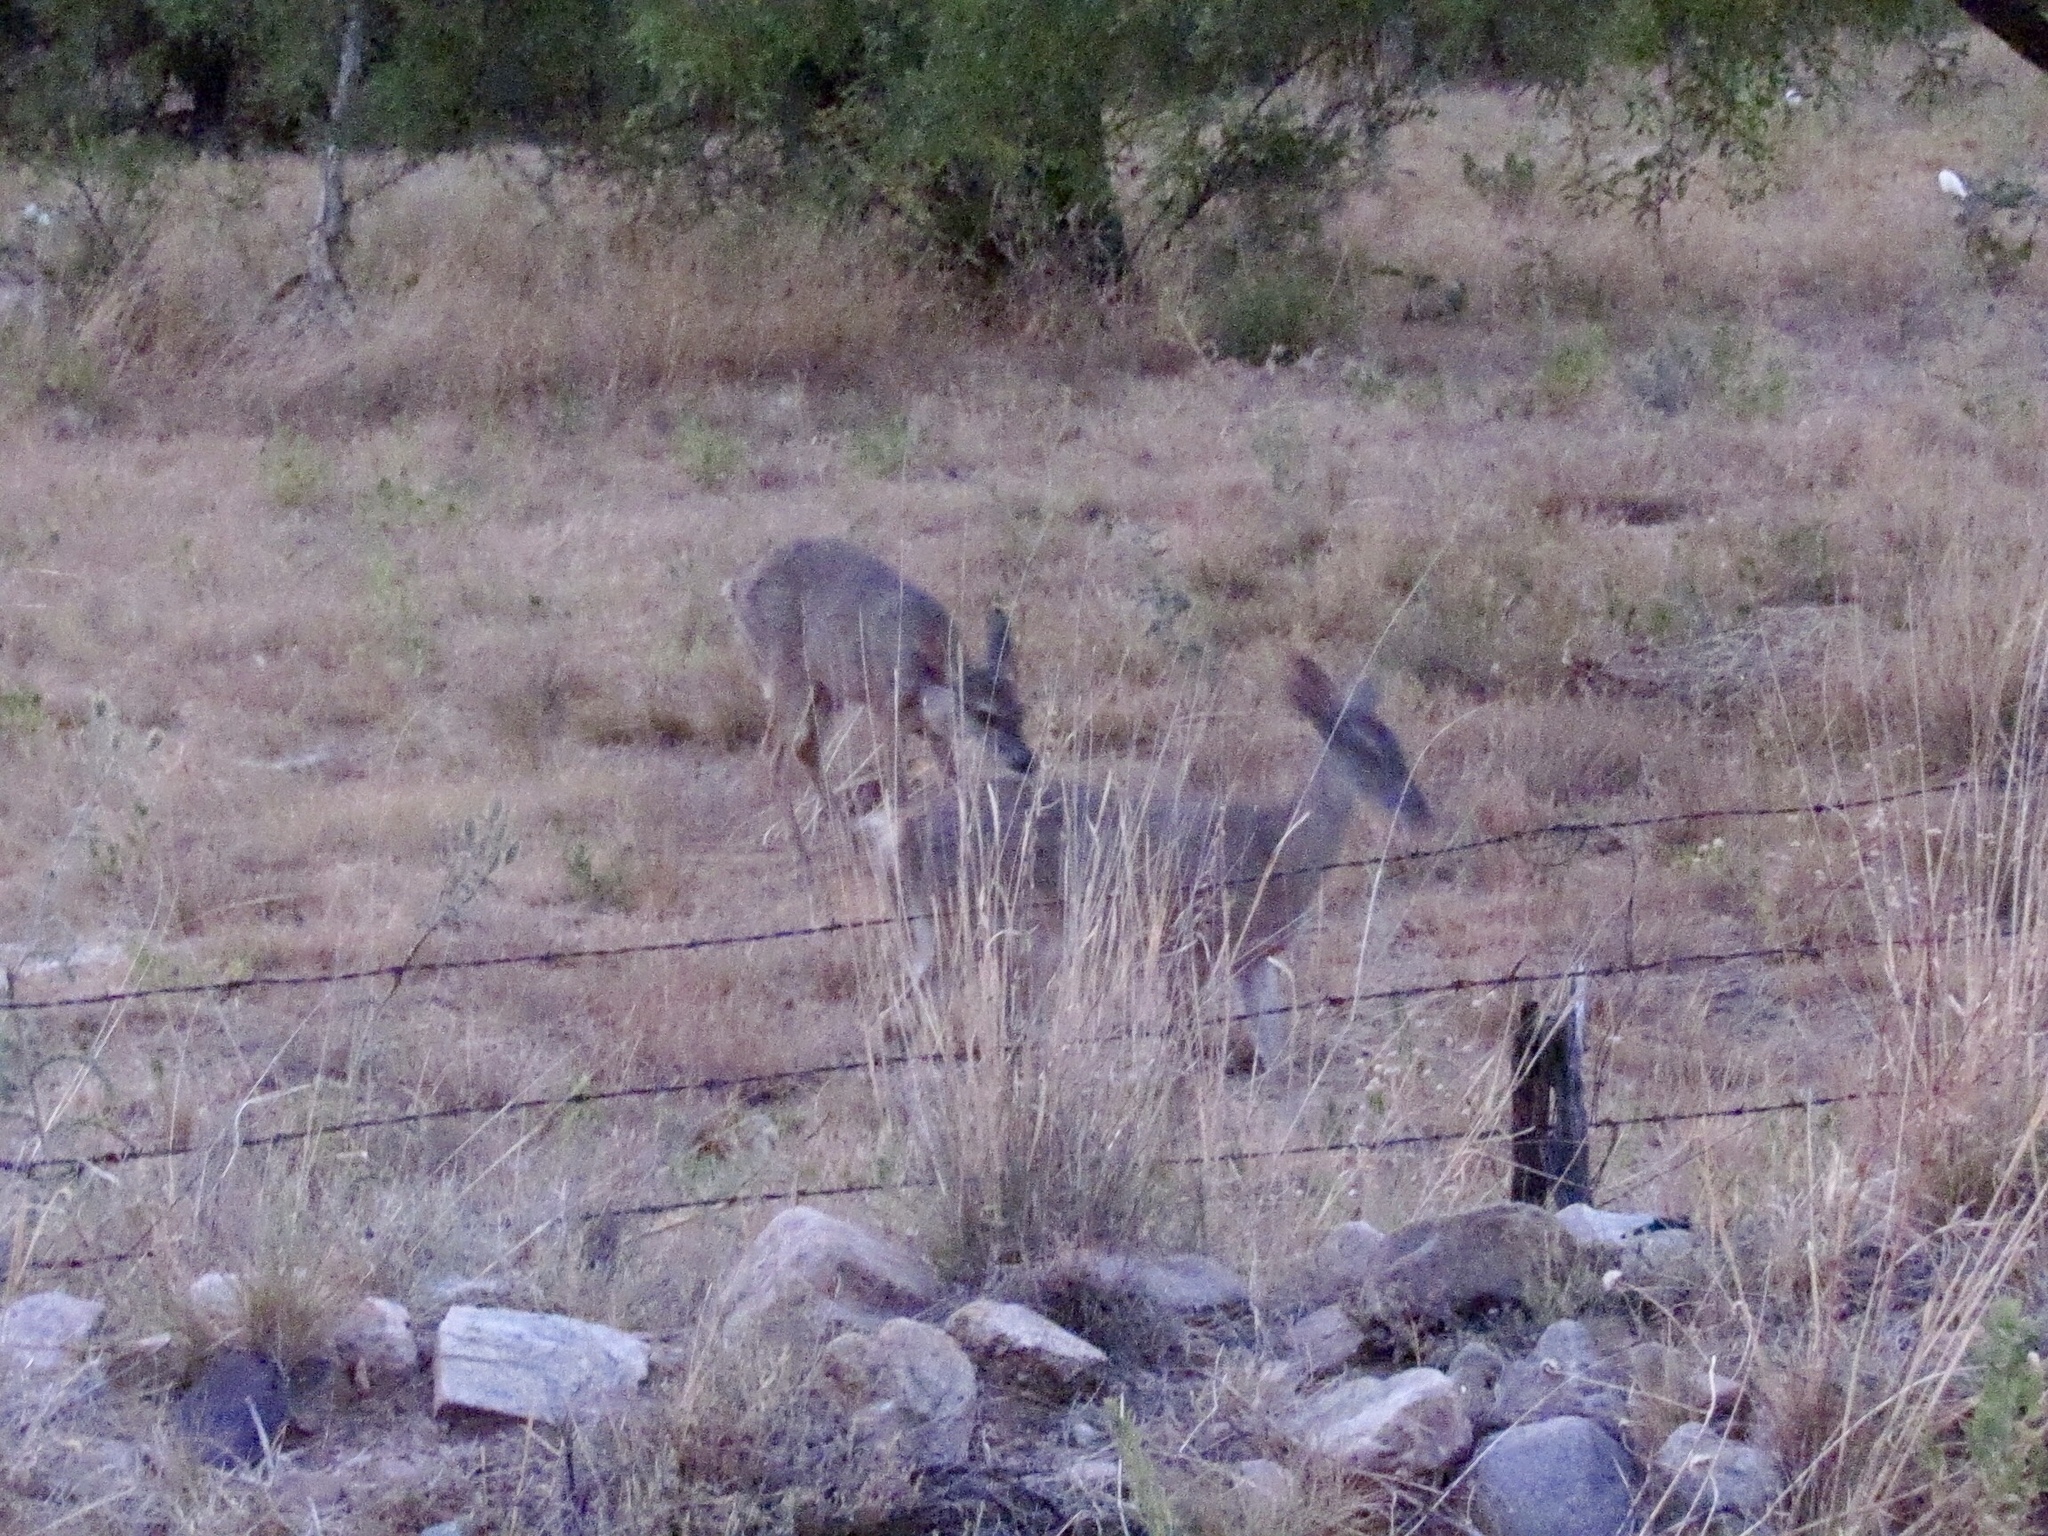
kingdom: Animalia
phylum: Chordata
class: Mammalia
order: Artiodactyla
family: Cervidae
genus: Odocoileus
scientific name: Odocoileus virginianus
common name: White-tailed deer
